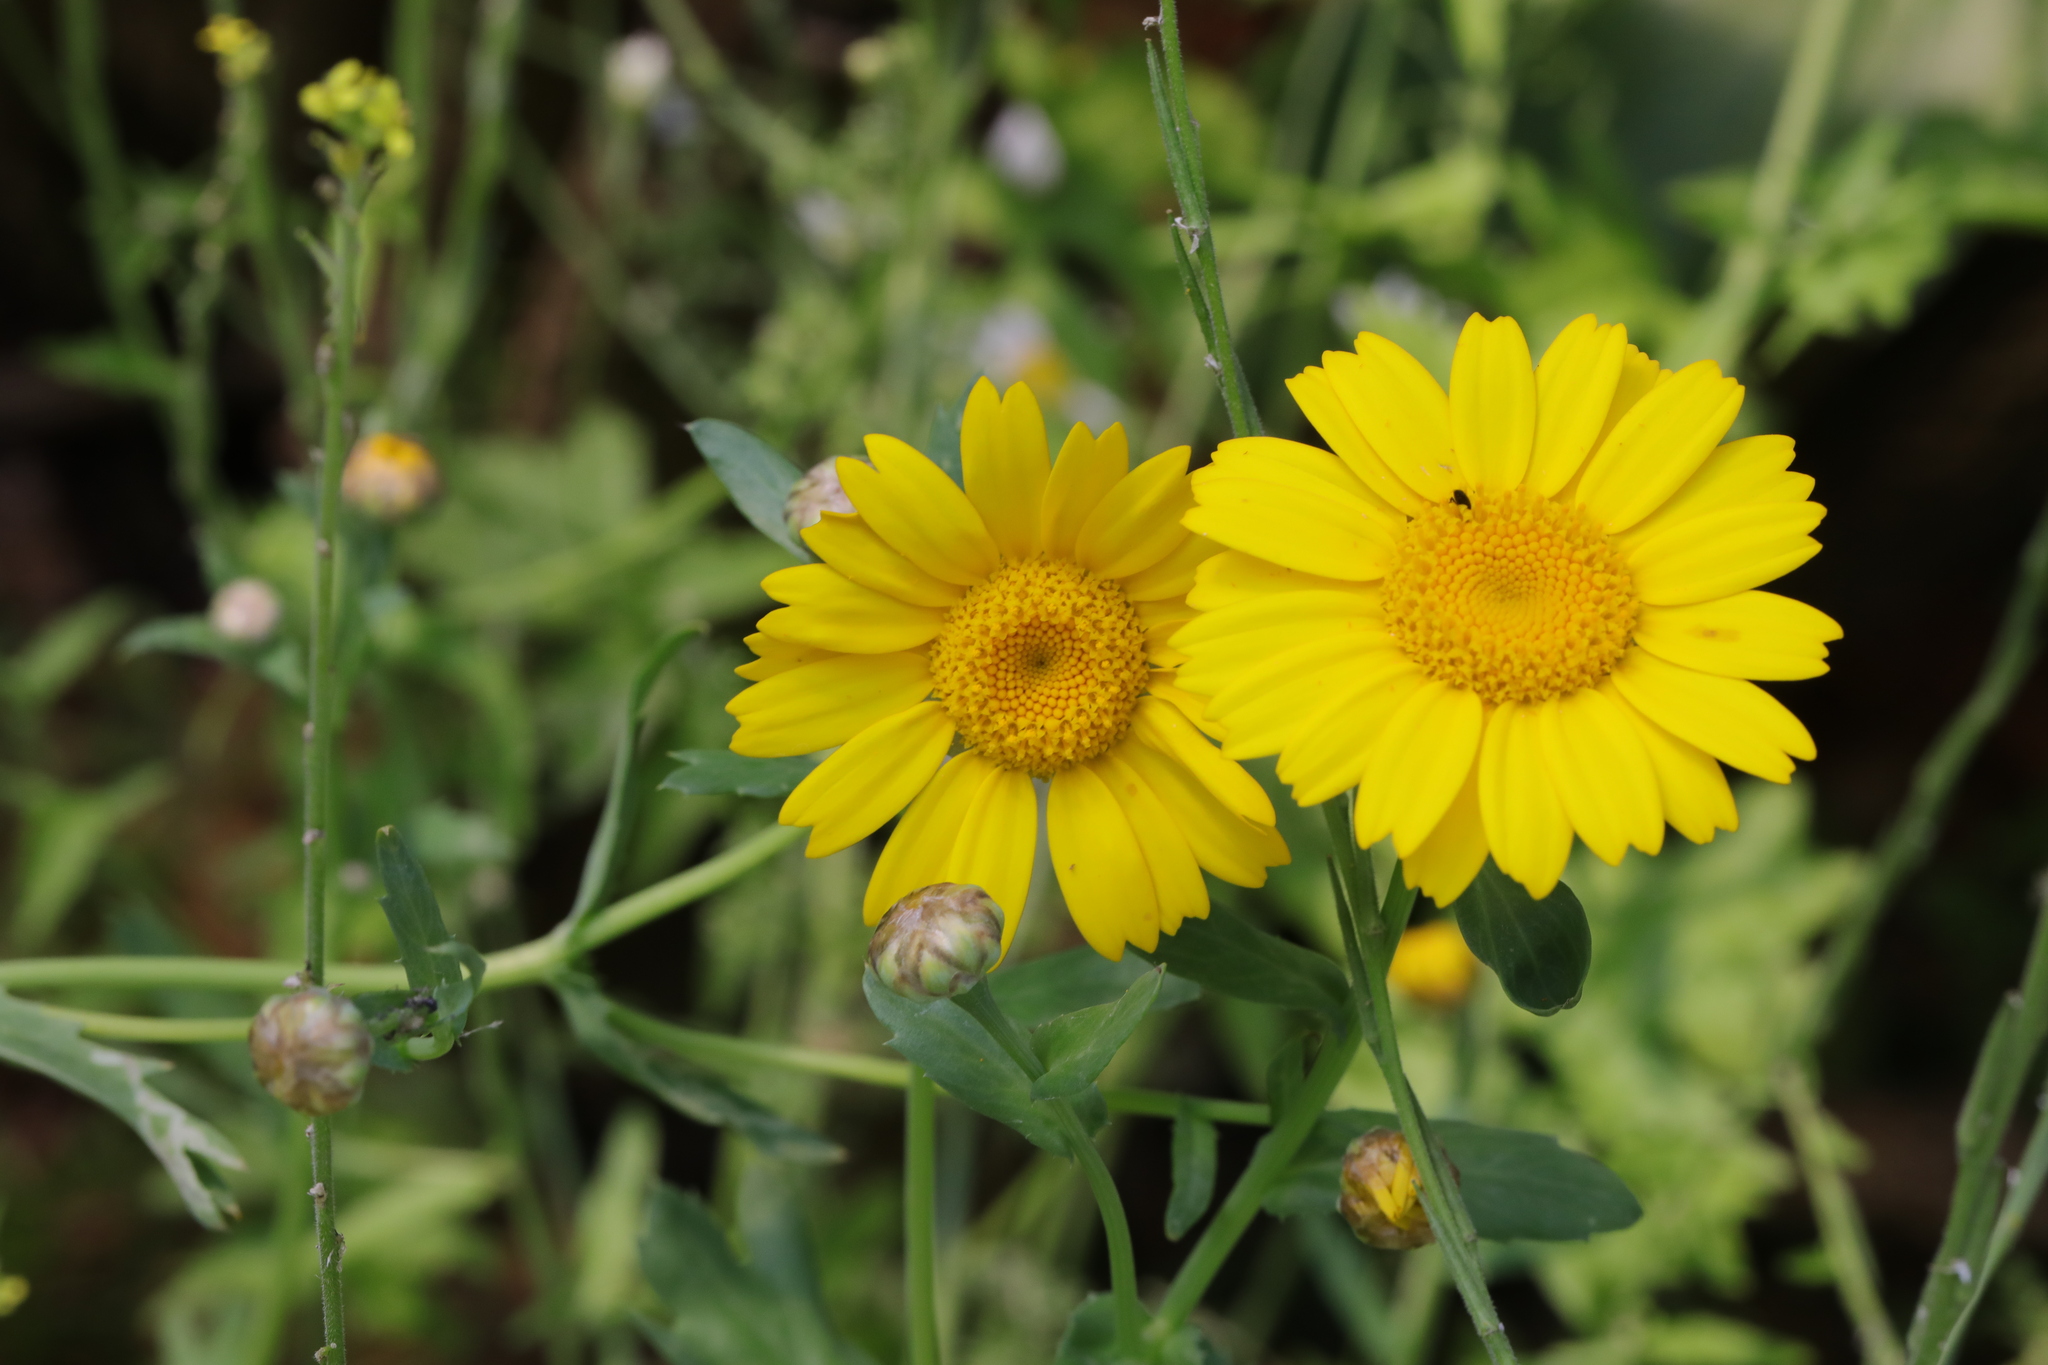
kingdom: Plantae
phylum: Tracheophyta
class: Magnoliopsida
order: Asterales
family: Asteraceae
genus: Glebionis
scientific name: Glebionis segetum
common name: Corndaisy
